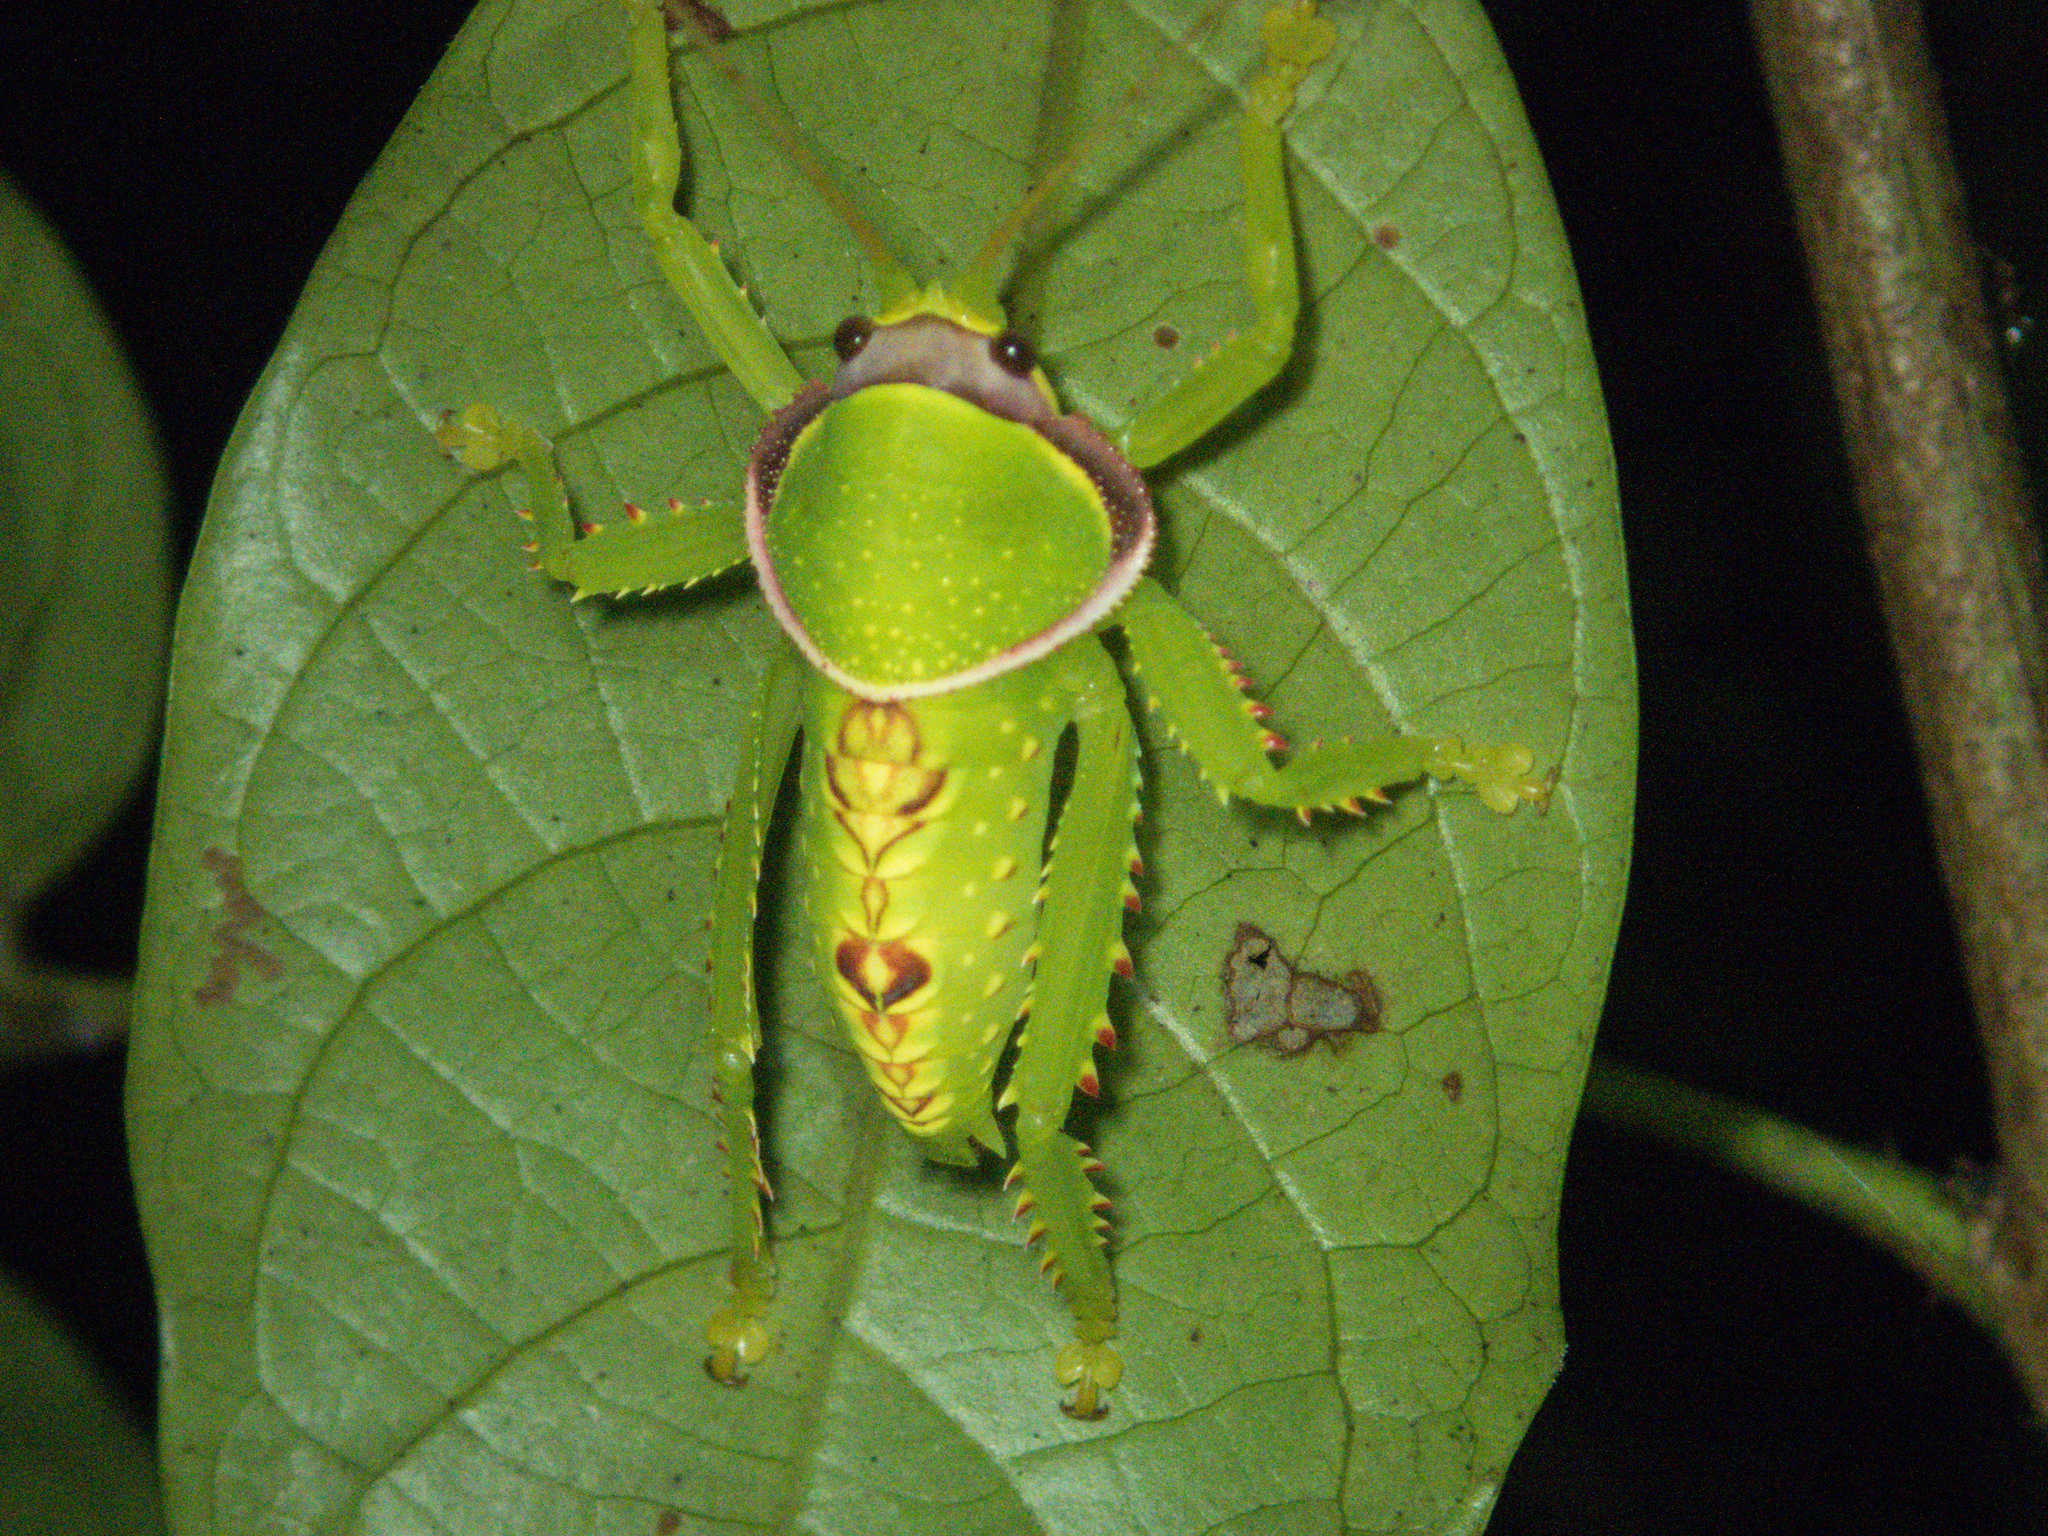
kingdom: Animalia
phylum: Arthropoda
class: Insecta
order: Orthoptera
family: Tettigoniidae
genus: Pseudophyllus
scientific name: Pseudophyllus titan
